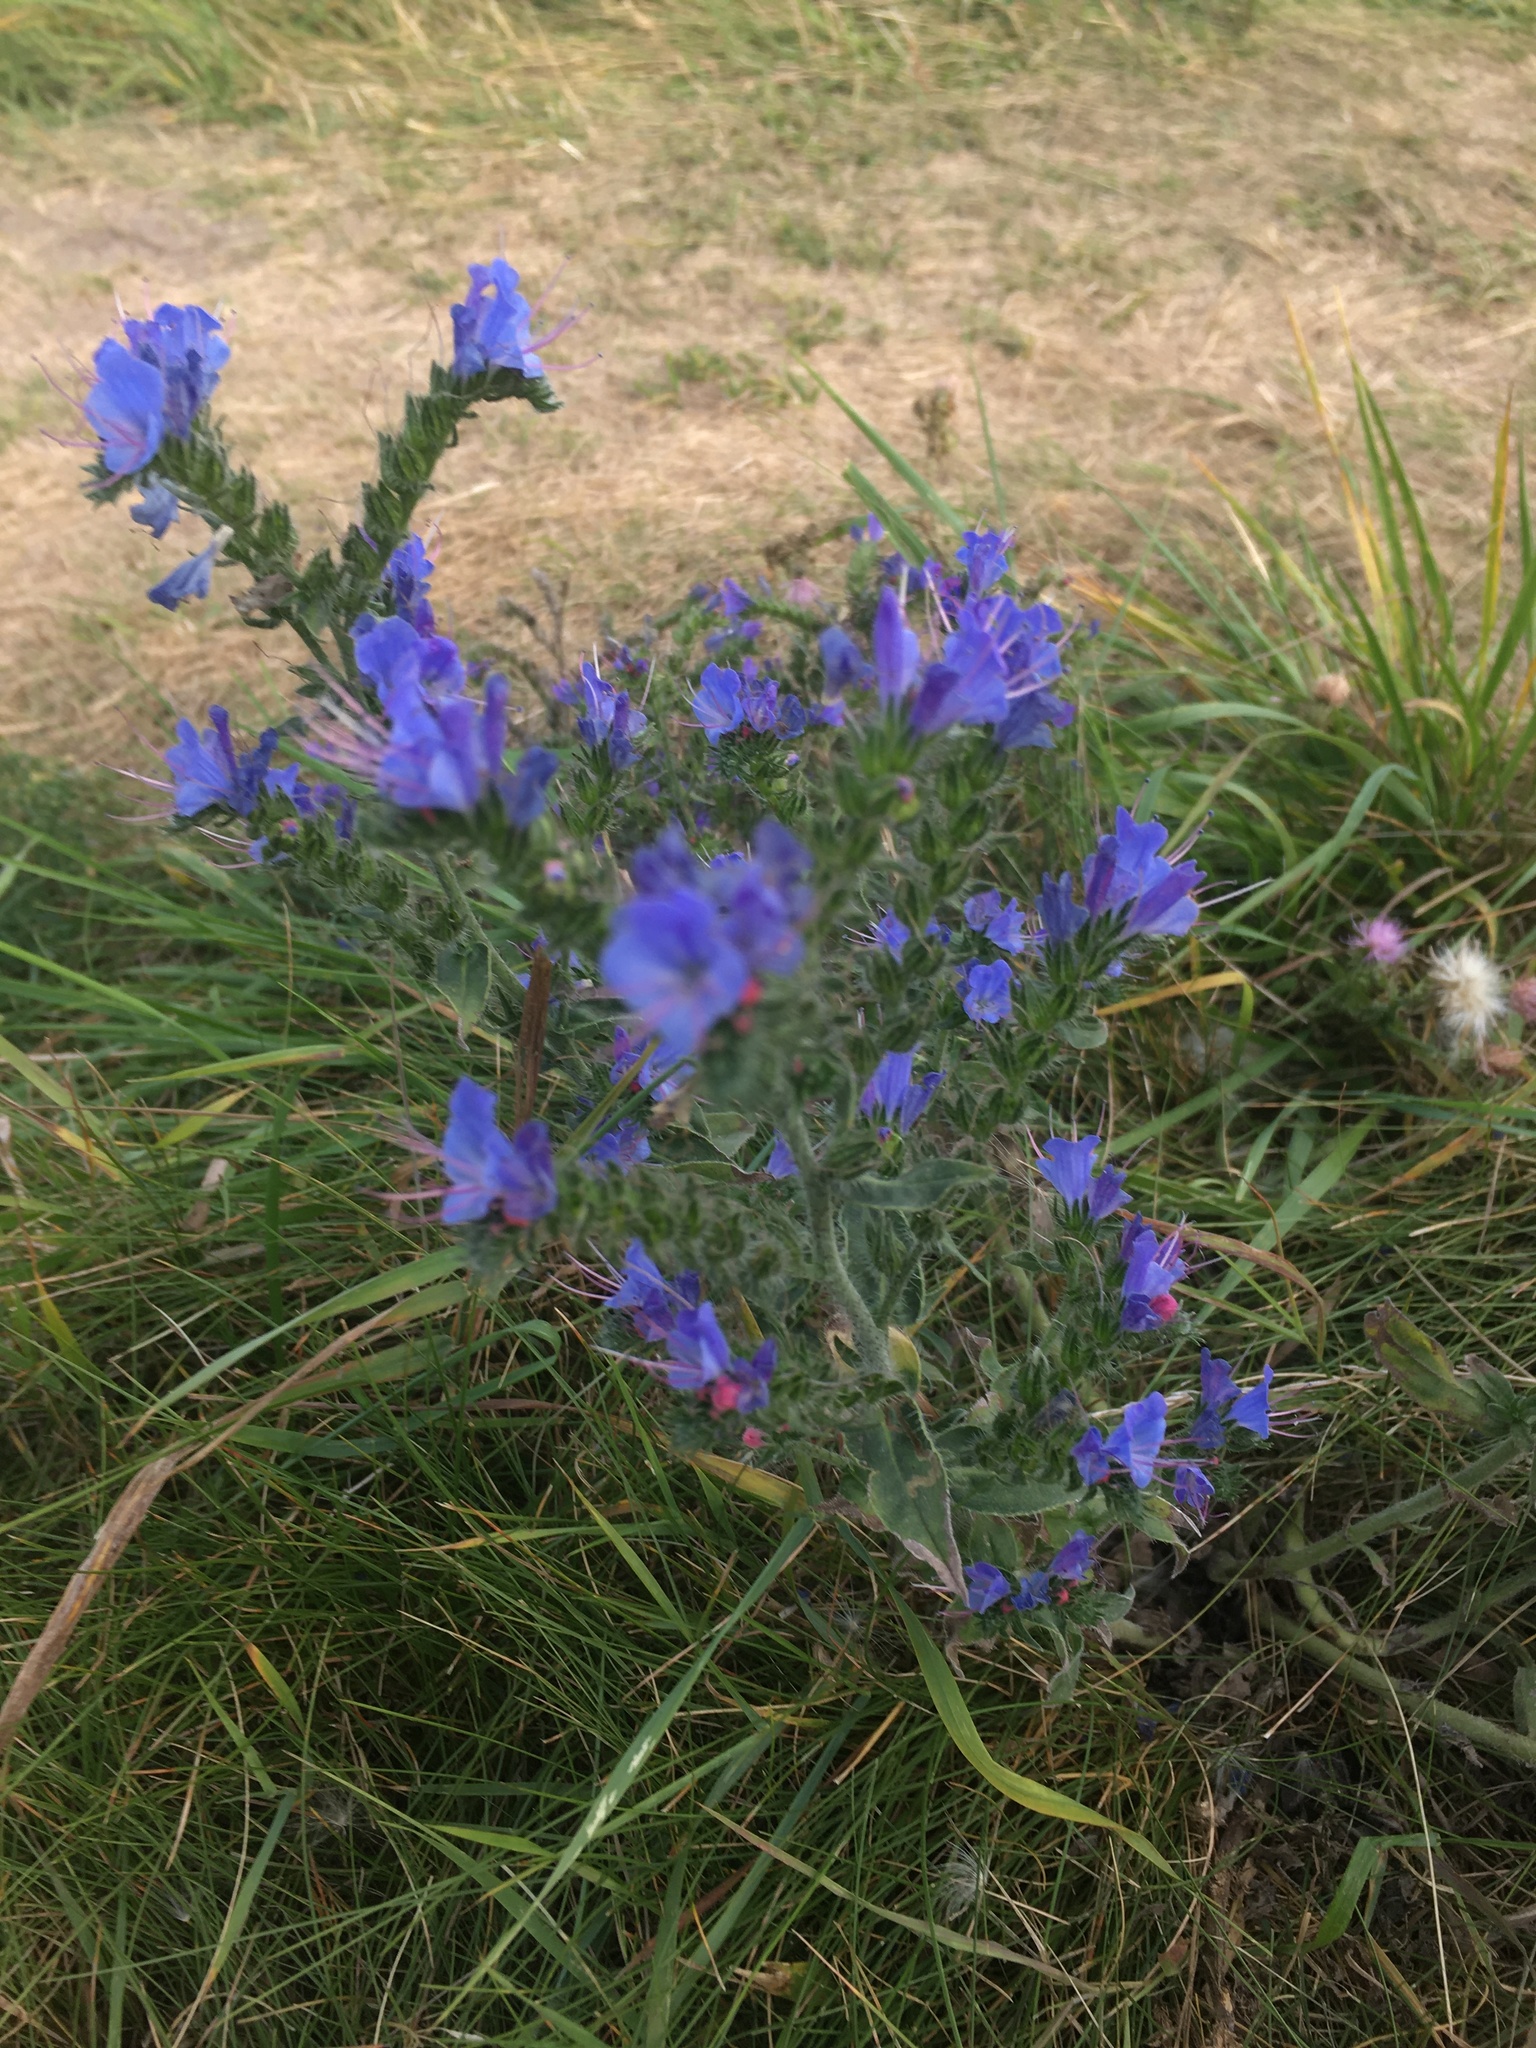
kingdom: Plantae
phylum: Tracheophyta
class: Magnoliopsida
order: Boraginales
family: Boraginaceae
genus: Echium
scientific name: Echium vulgare
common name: Common viper's bugloss
